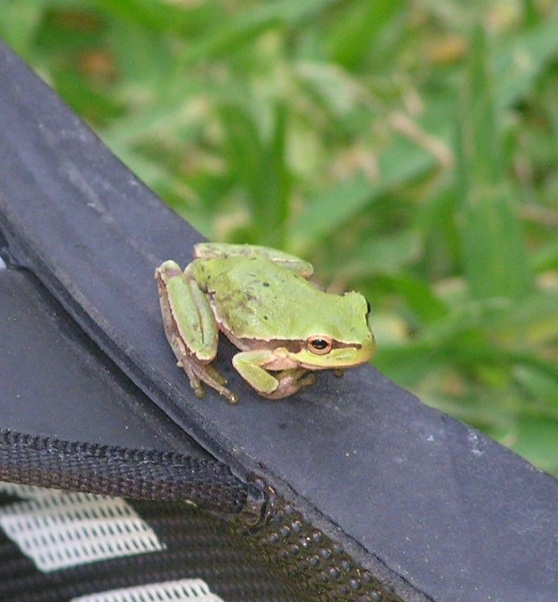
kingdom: Animalia
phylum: Chordata
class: Amphibia
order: Anura
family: Hylidae
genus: Hyla
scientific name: Hyla orientalis
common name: Caucasian treefrog
